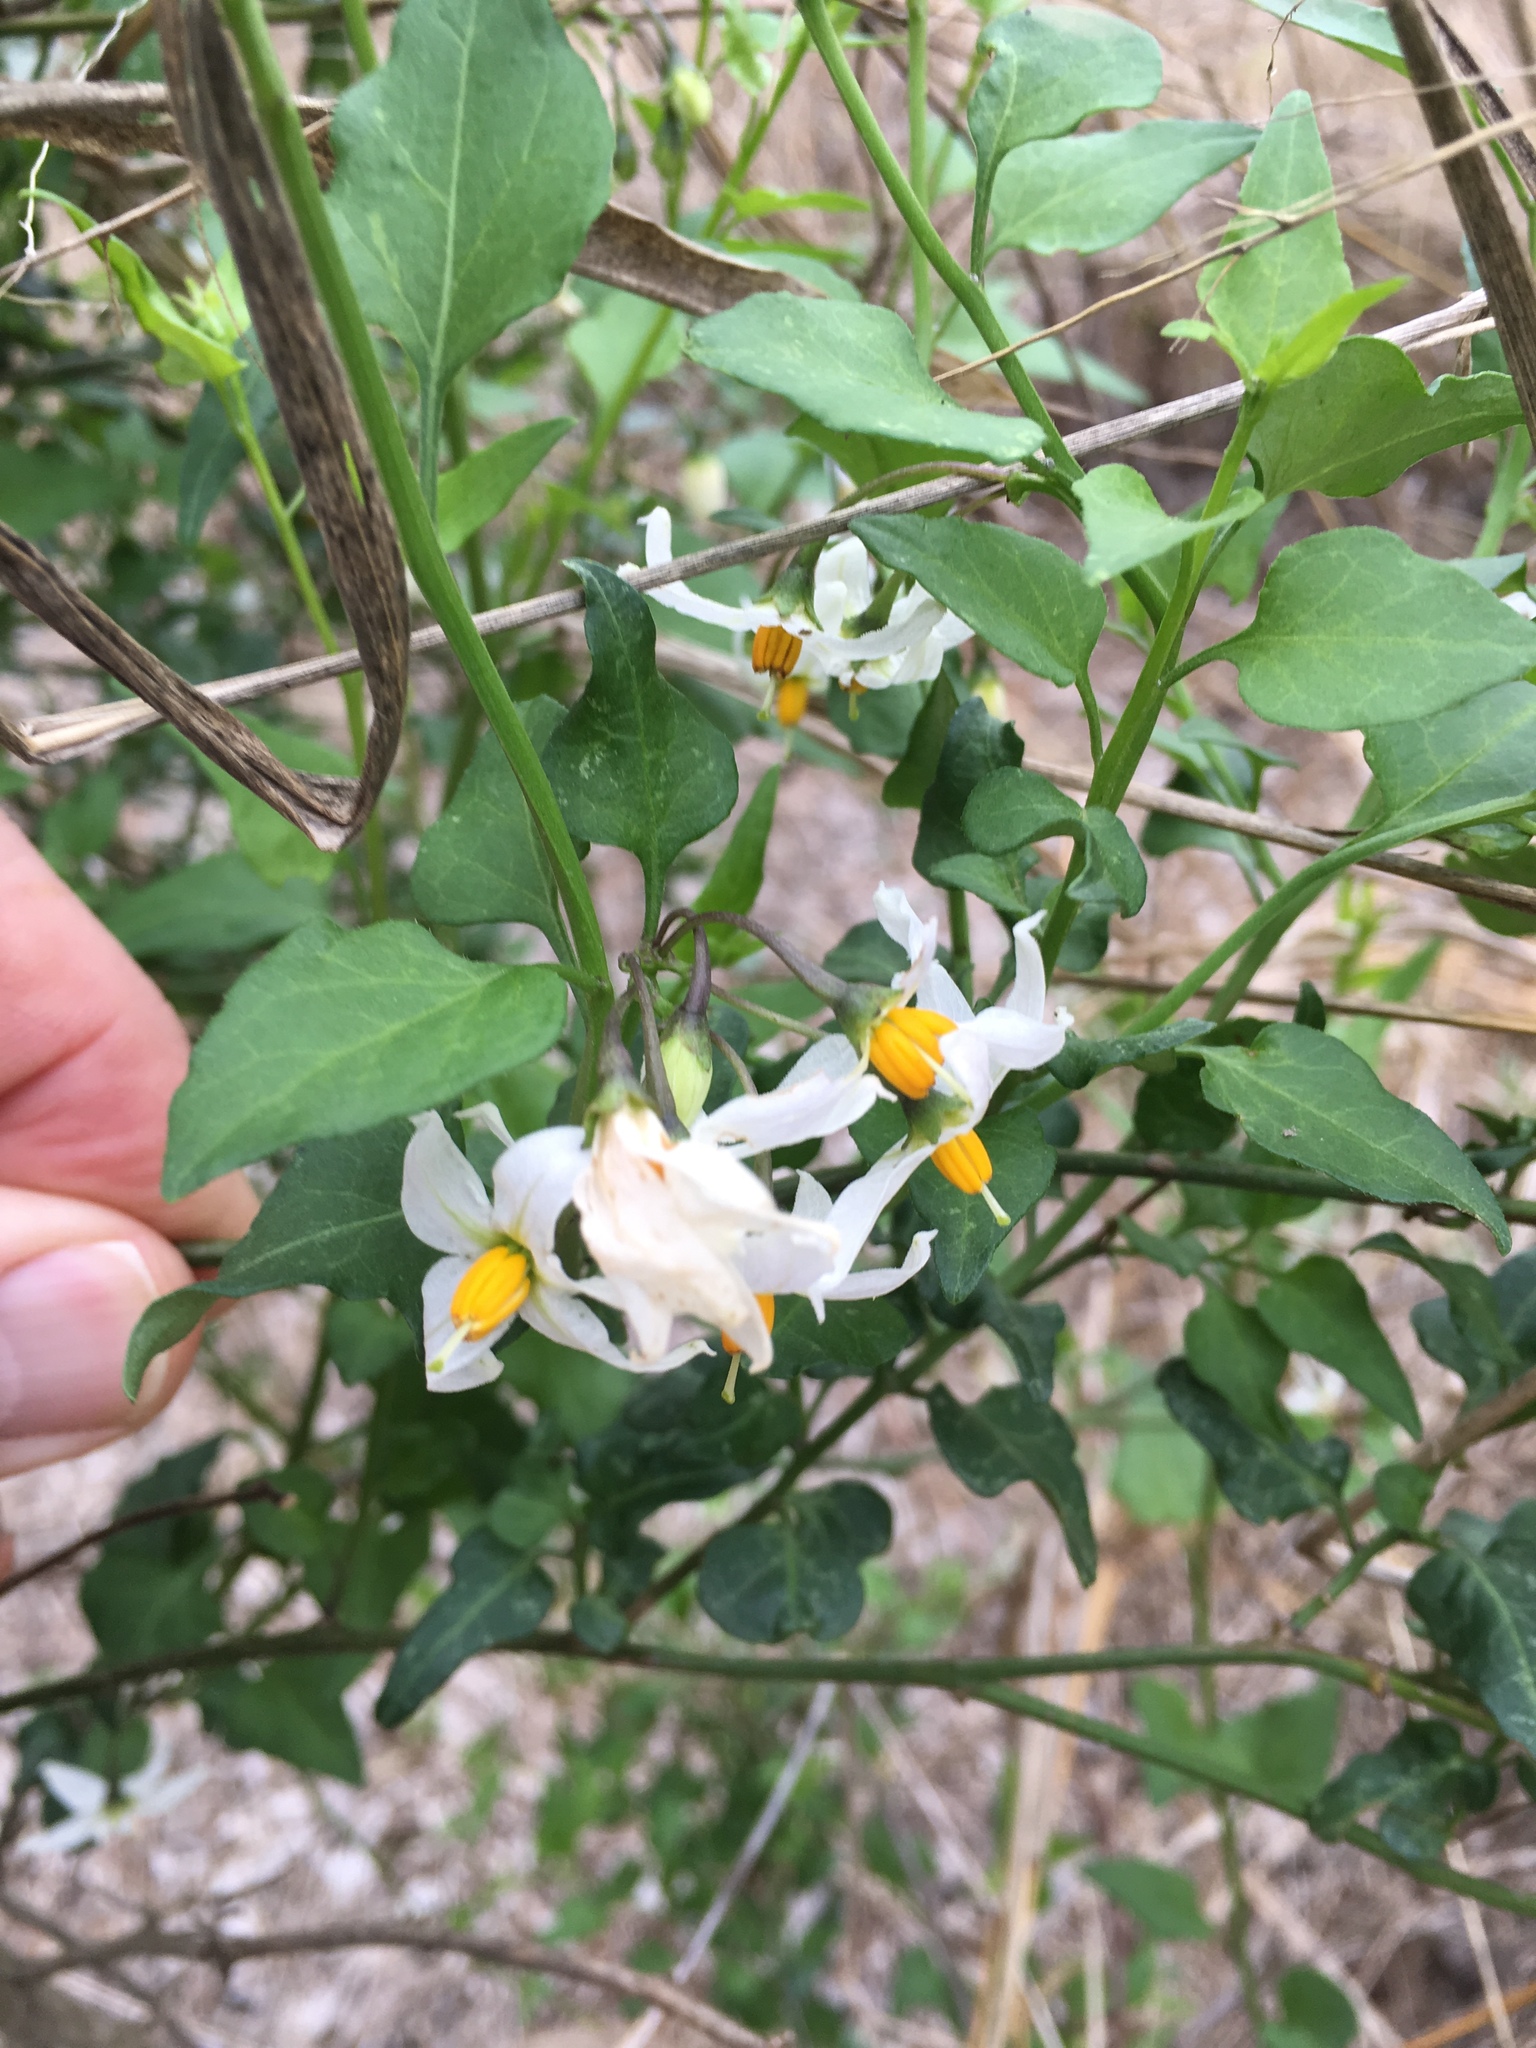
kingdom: Plantae
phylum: Tracheophyta
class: Magnoliopsida
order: Solanales
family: Solanaceae
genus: Solanum
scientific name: Solanum triquetrum
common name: Texas nightshade
